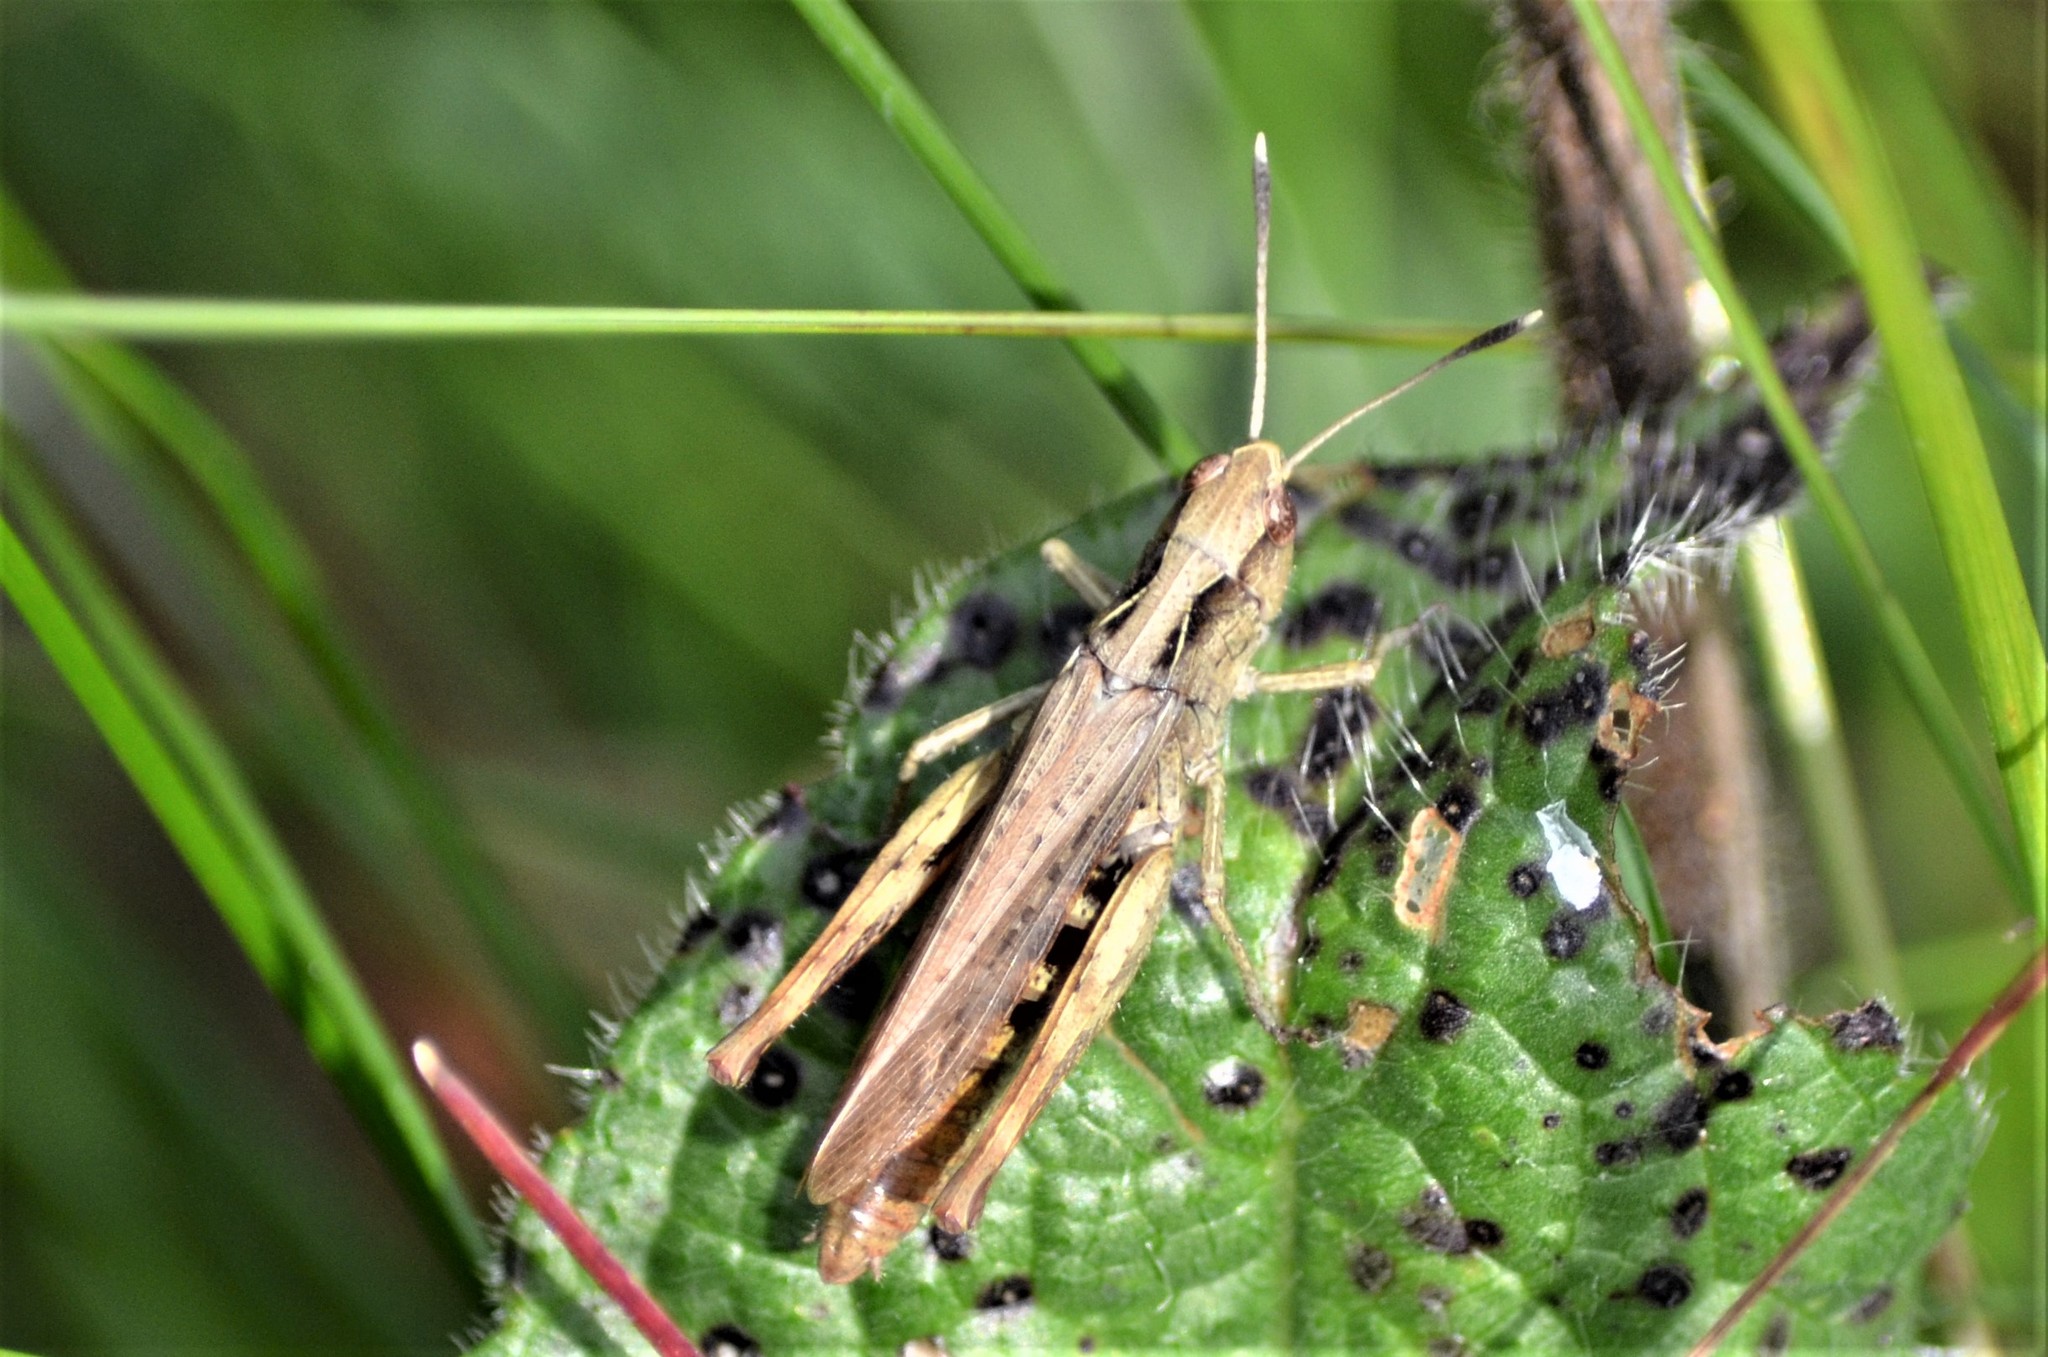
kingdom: Animalia
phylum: Arthropoda
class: Insecta
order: Orthoptera
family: Acrididae
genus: Gomphocerippus
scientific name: Gomphocerippus rufus
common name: Rufous grasshopper
